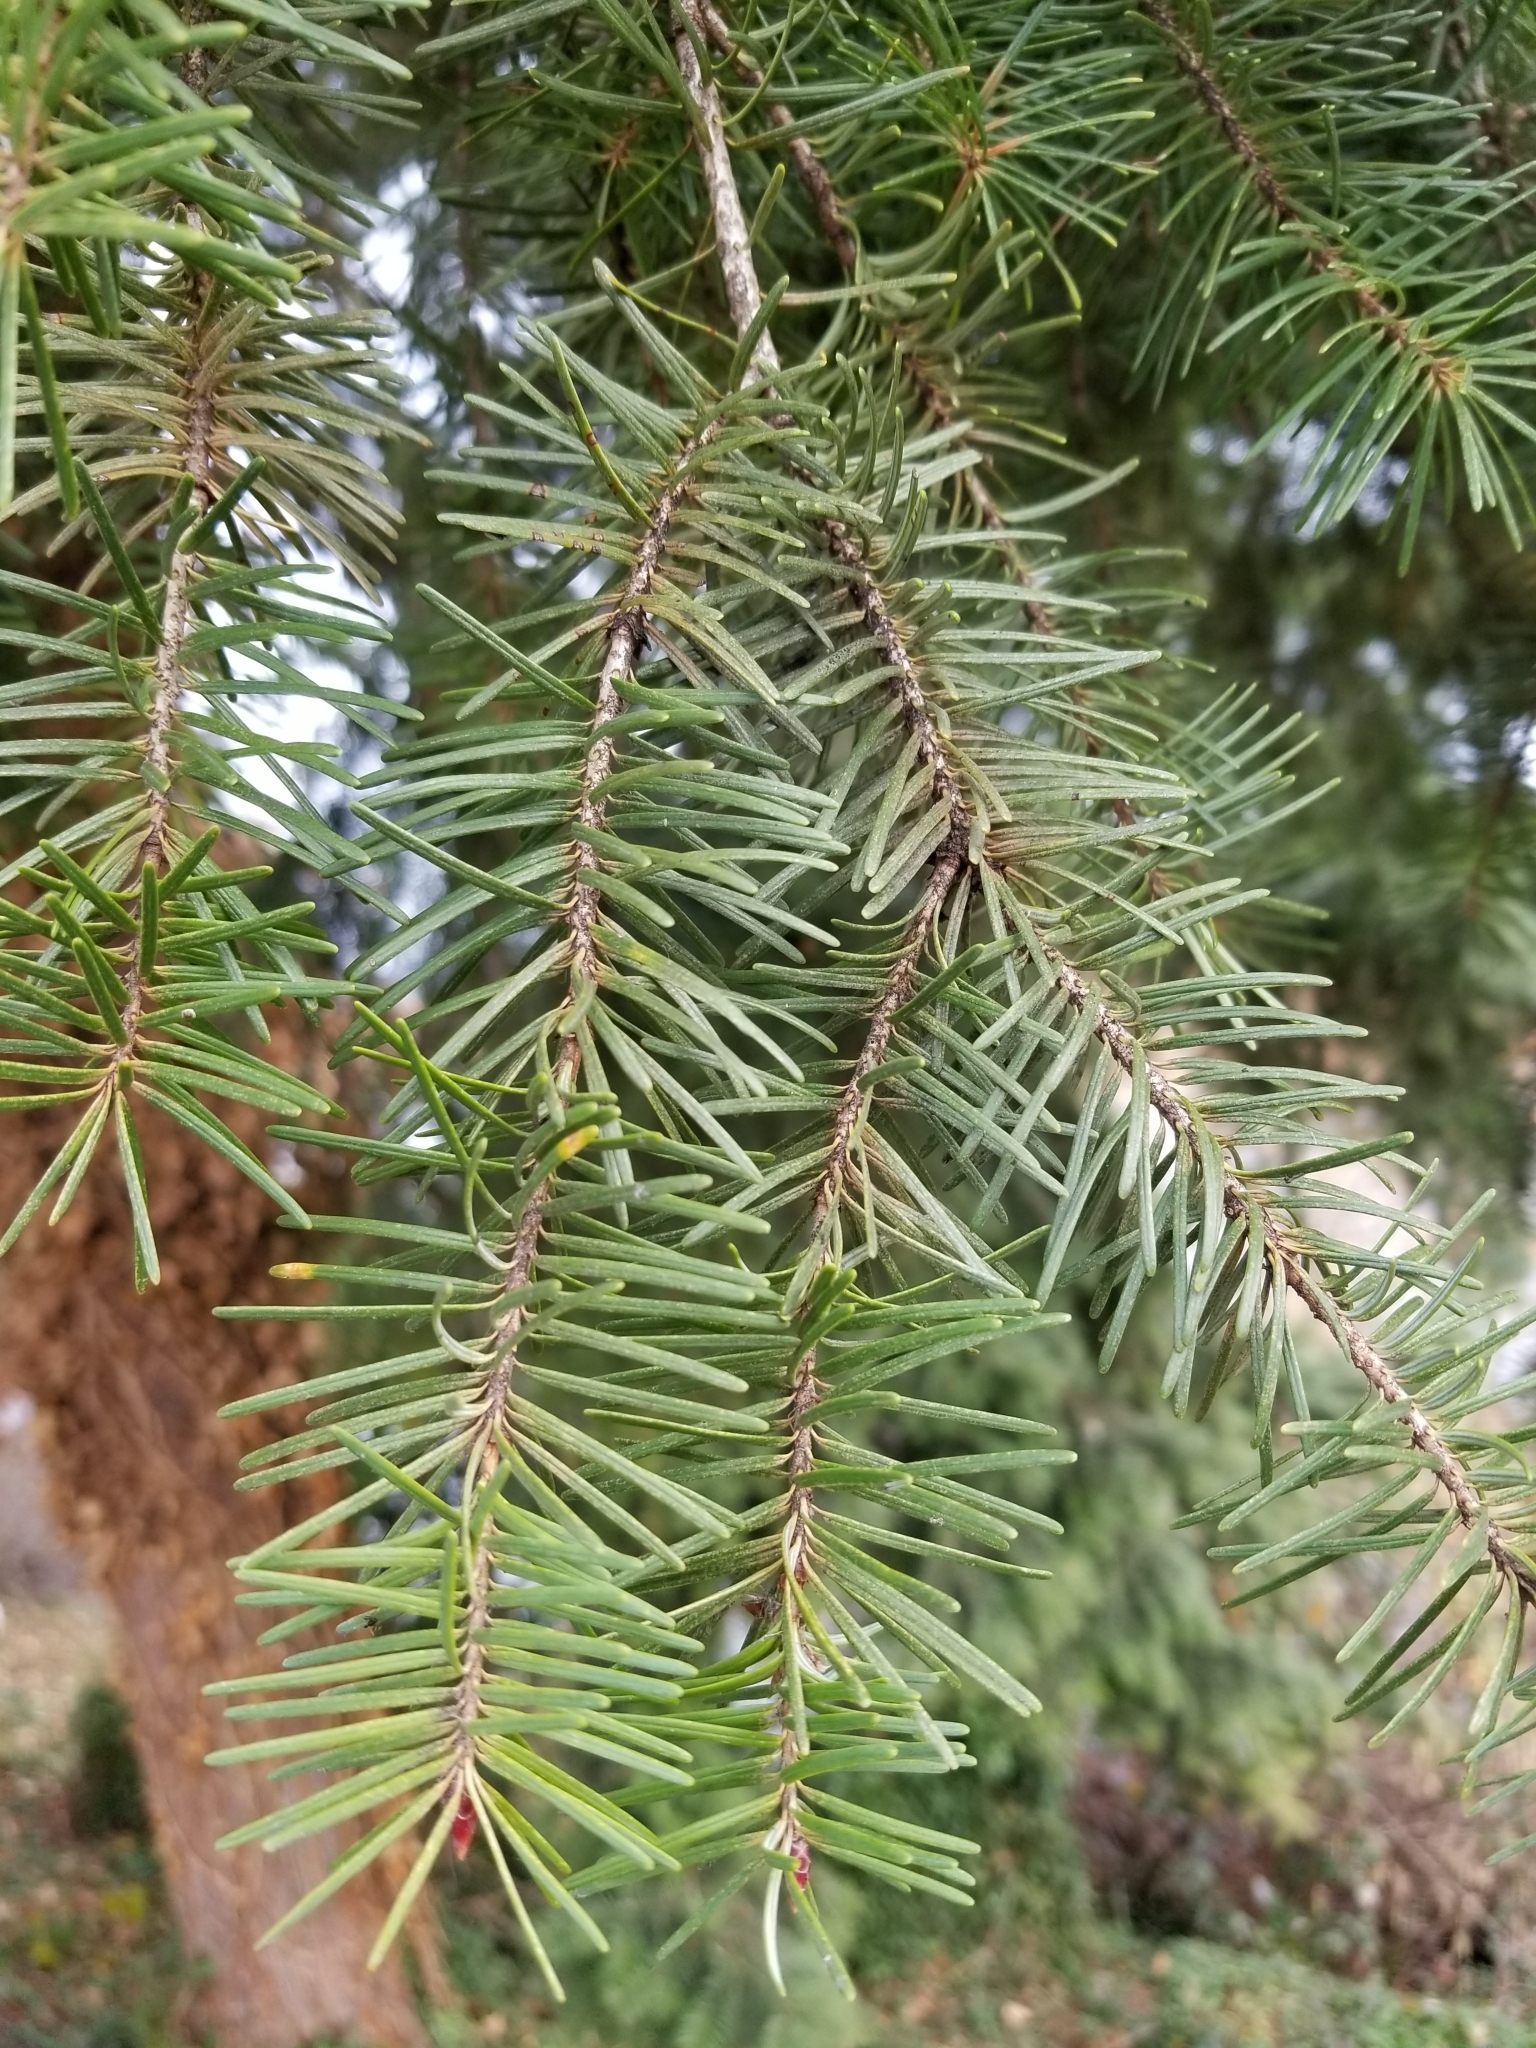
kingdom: Plantae
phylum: Tracheophyta
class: Pinopsida
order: Pinales
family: Pinaceae
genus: Pseudotsuga
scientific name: Pseudotsuga menziesii
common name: Douglas fir
